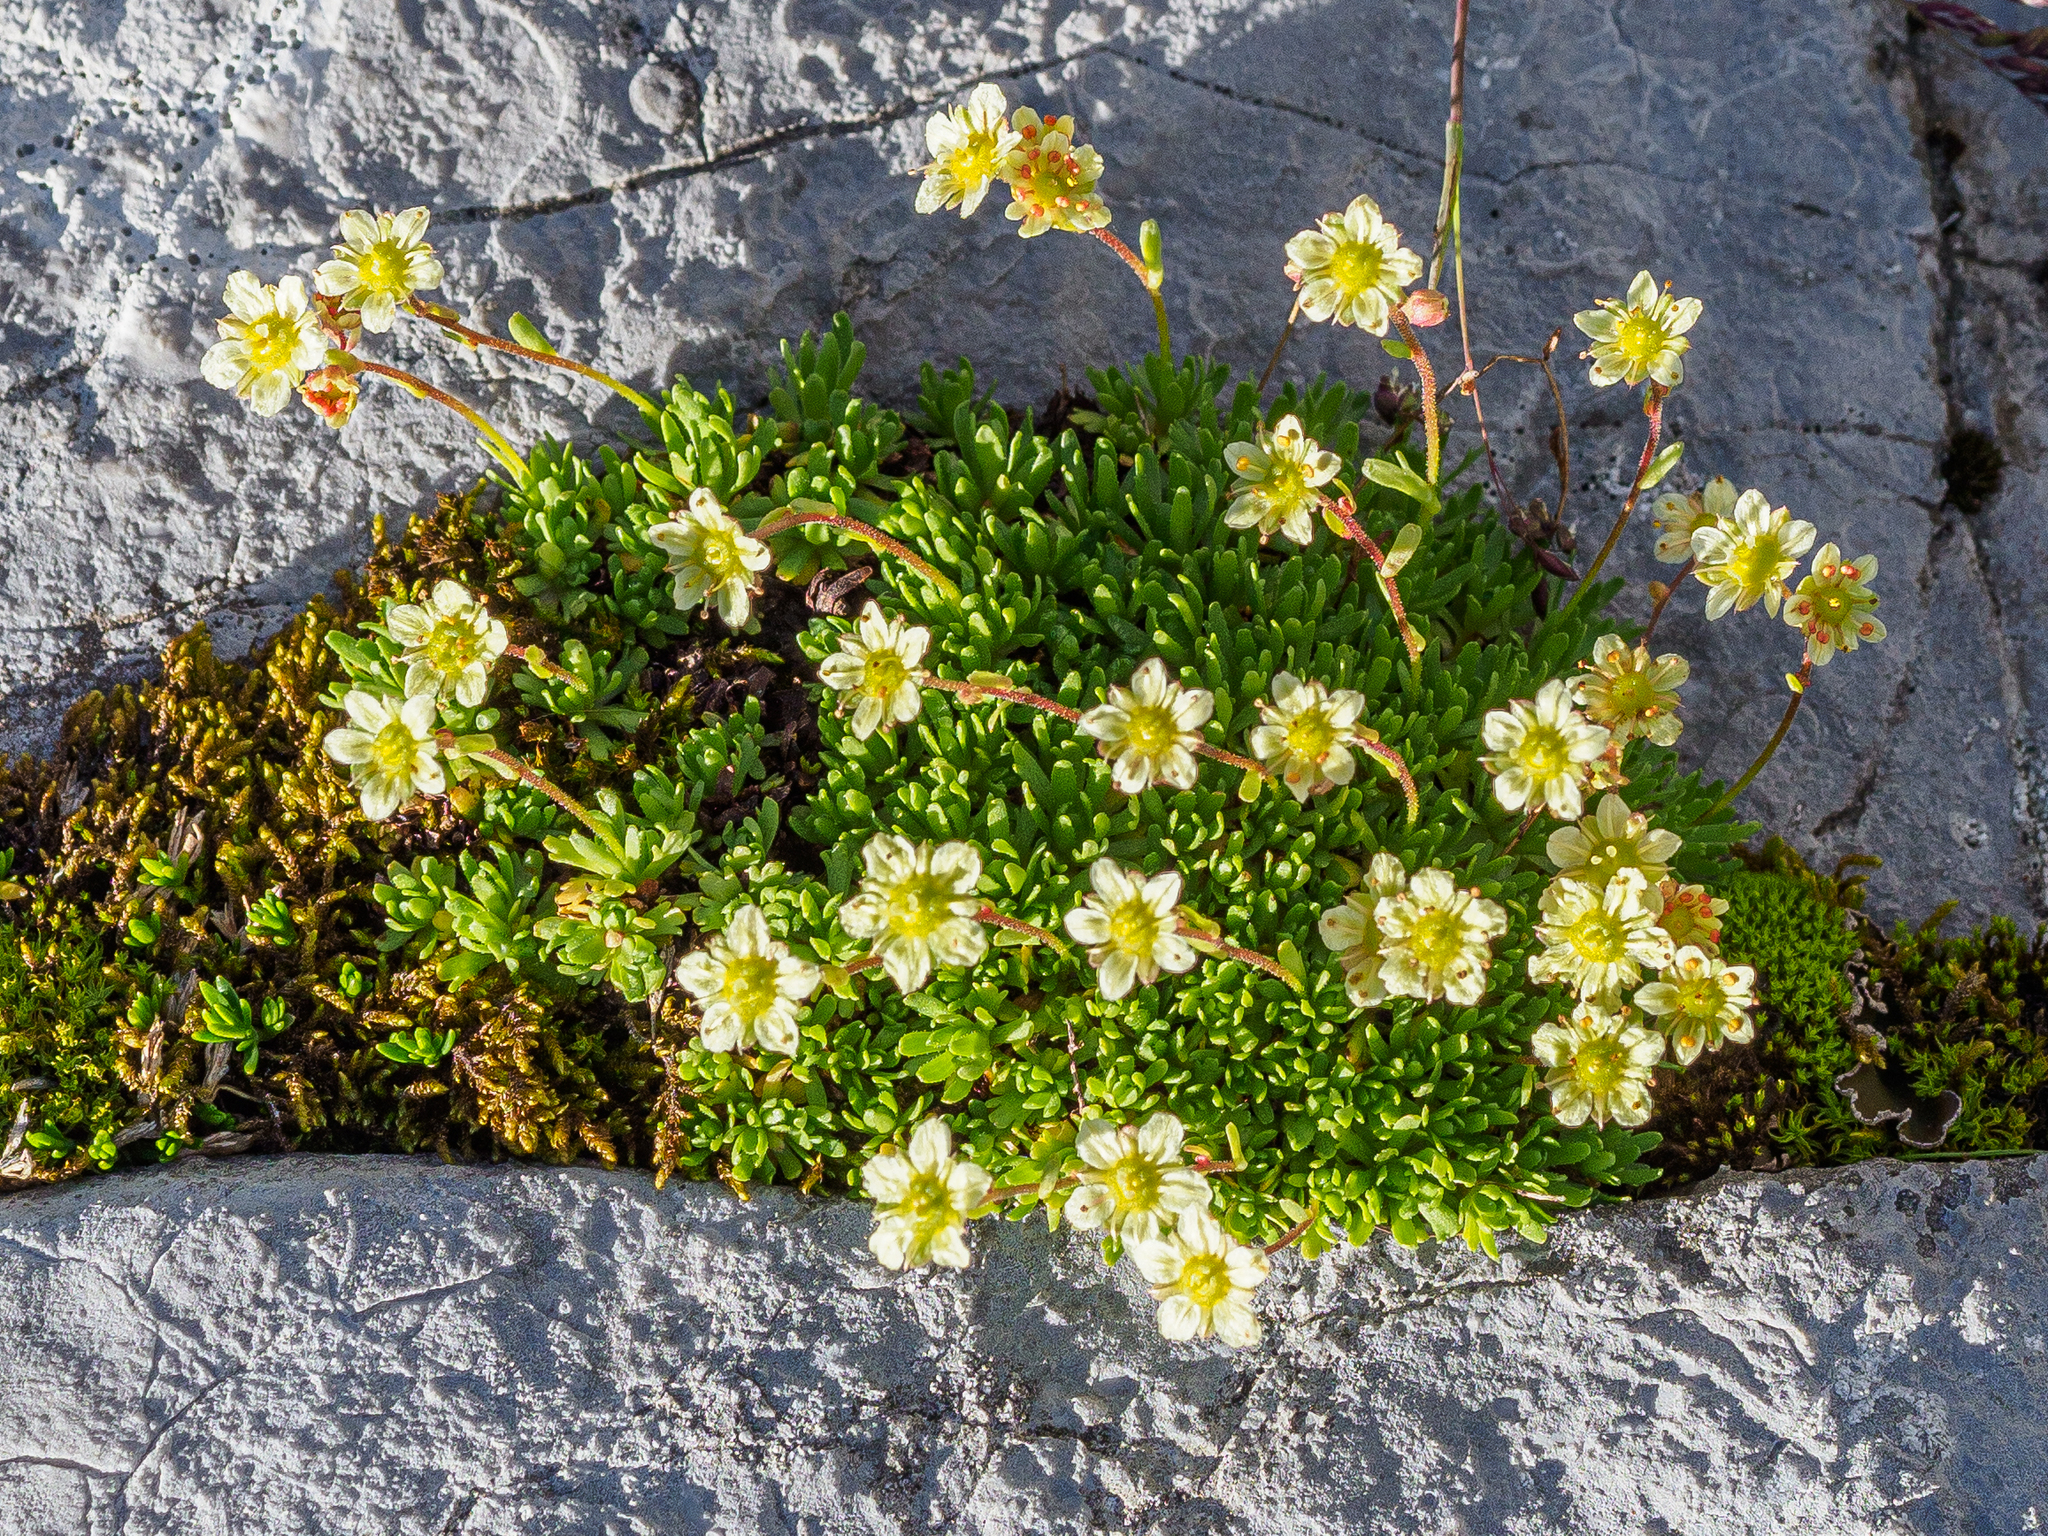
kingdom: Plantae
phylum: Tracheophyta
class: Magnoliopsida
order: Saxifragales
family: Saxifragaceae
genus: Saxifraga
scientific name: Saxifraga moschata
